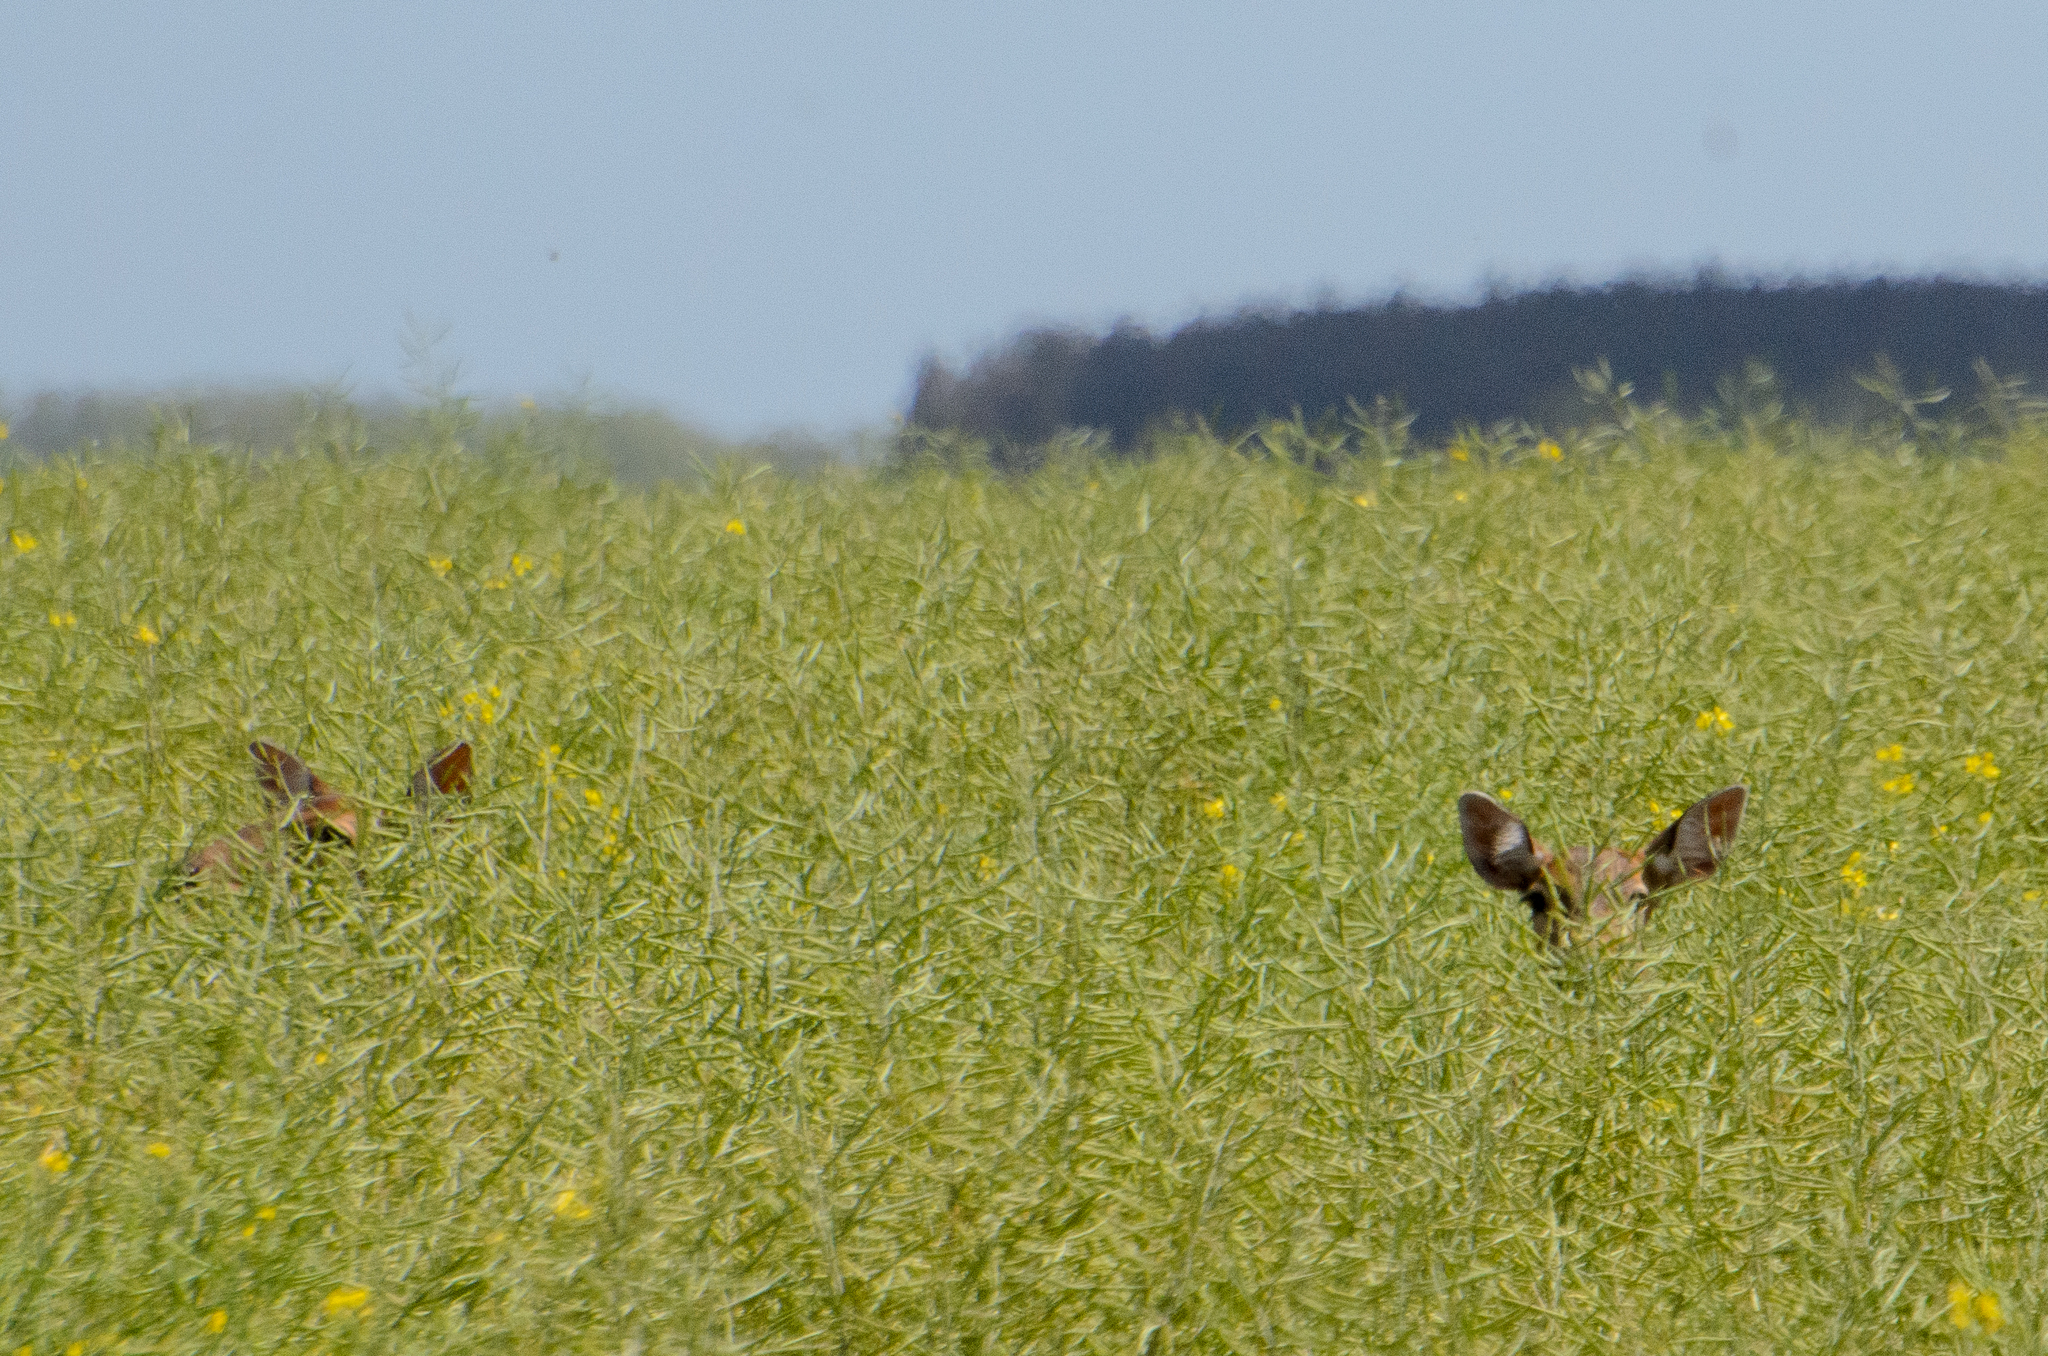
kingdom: Animalia
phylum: Chordata
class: Mammalia
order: Artiodactyla
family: Cervidae
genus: Axis
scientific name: Axis axis
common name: Chital
